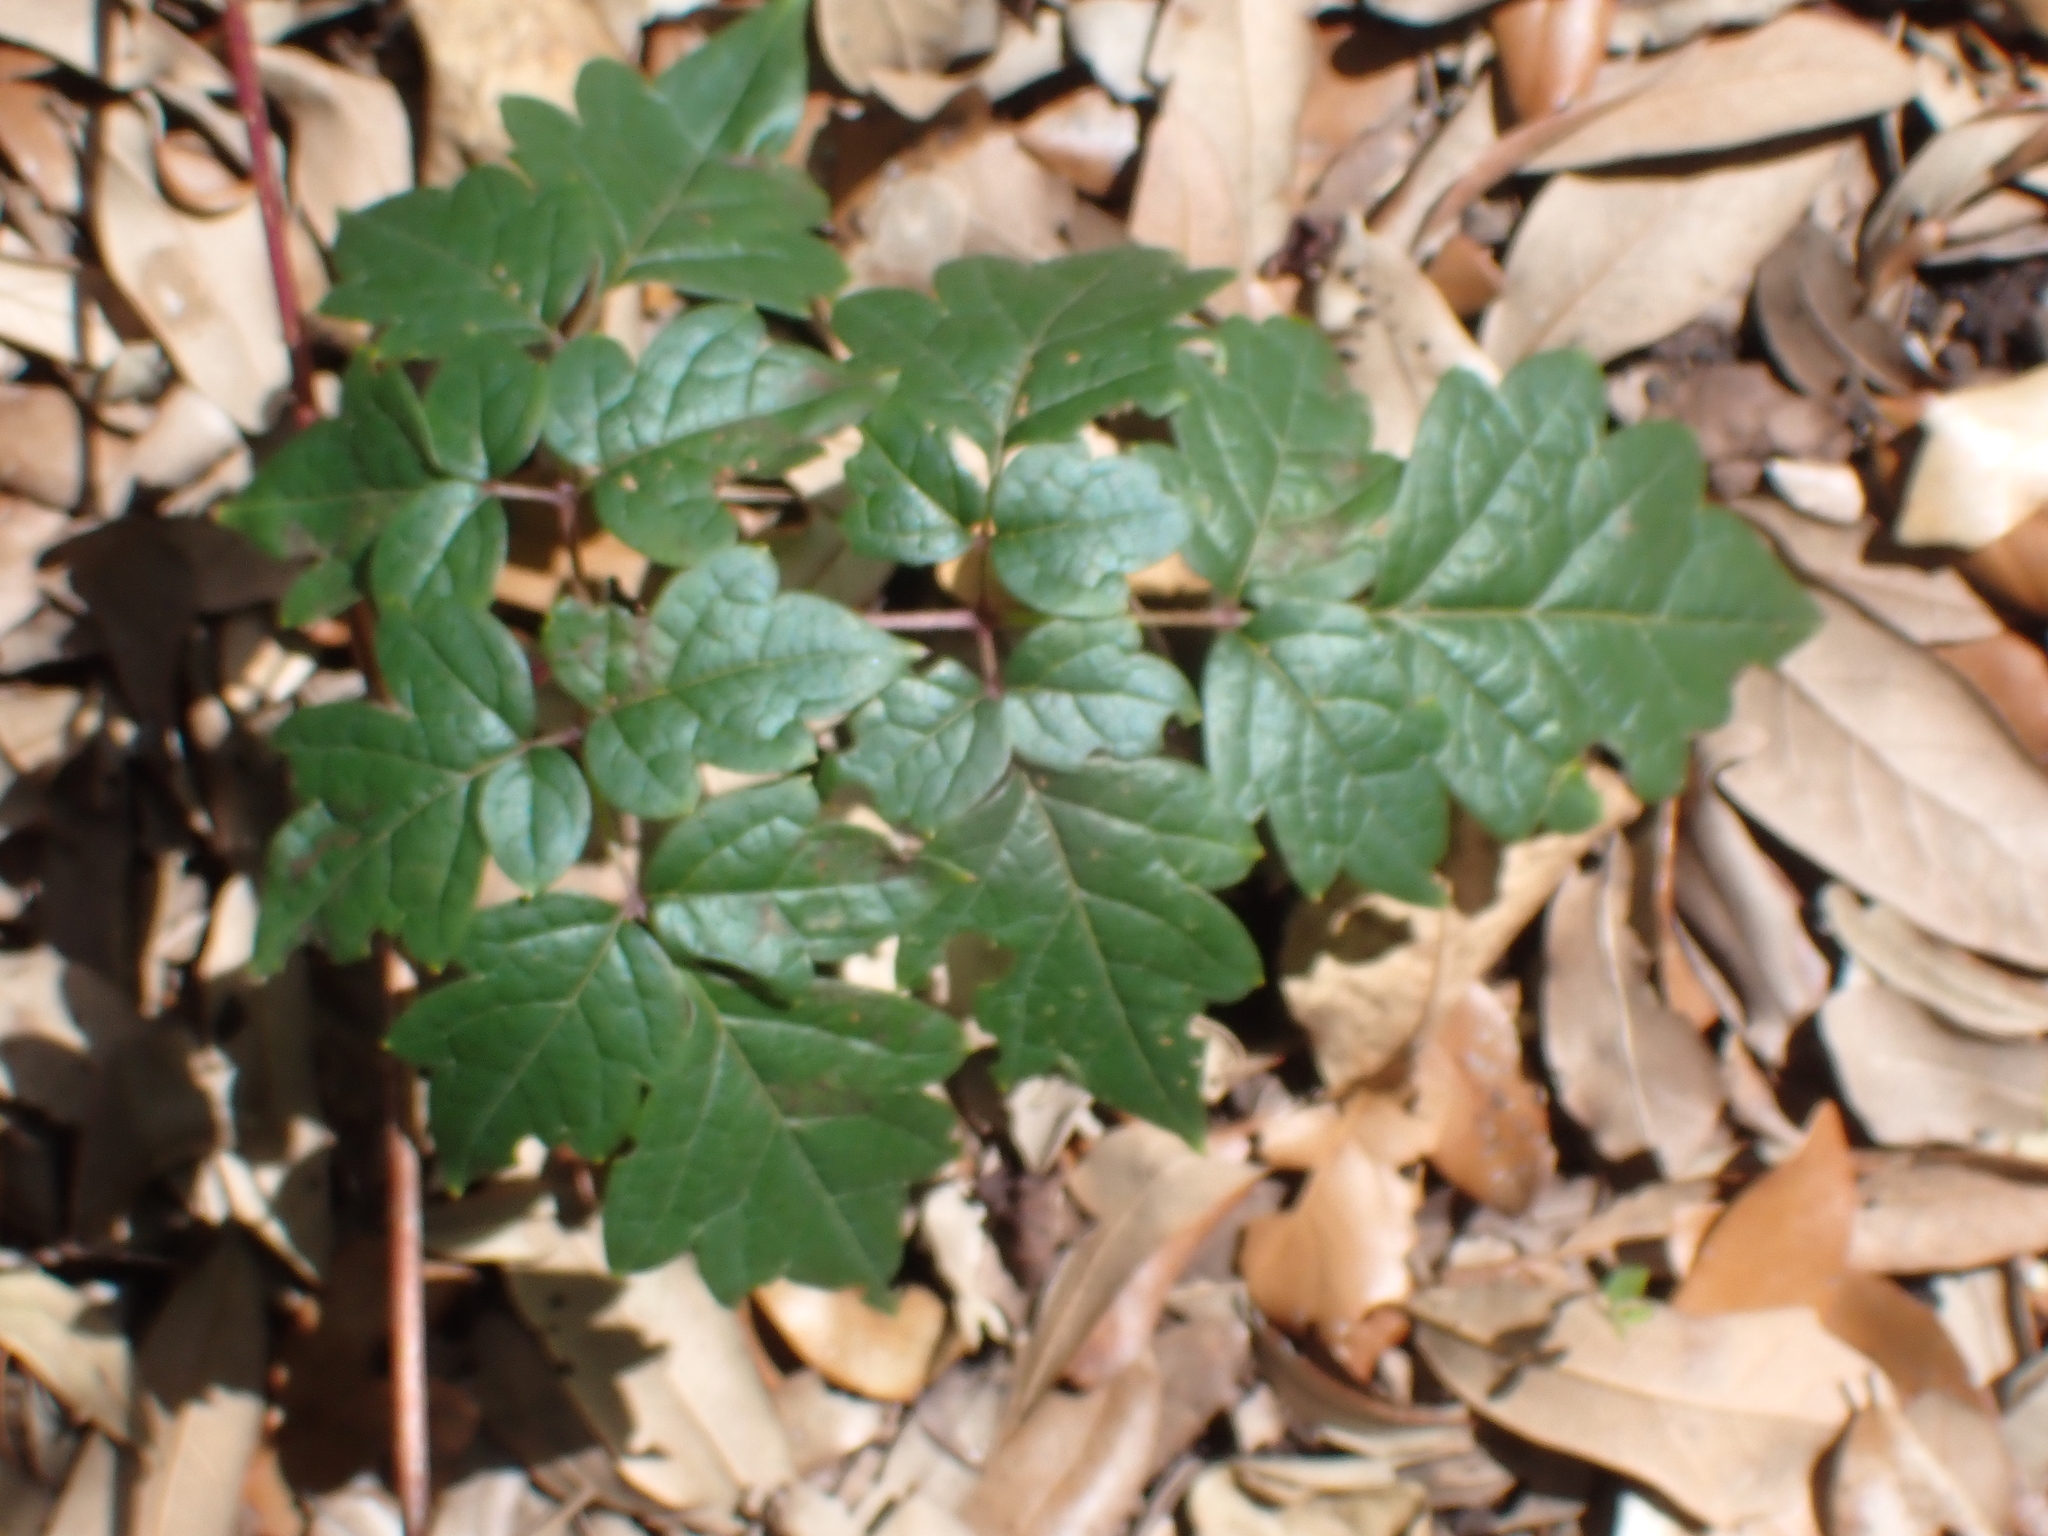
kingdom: Plantae
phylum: Tracheophyta
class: Magnoliopsida
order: Vitales
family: Vitaceae
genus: Nekemias
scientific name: Nekemias arborea
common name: Peppervine
